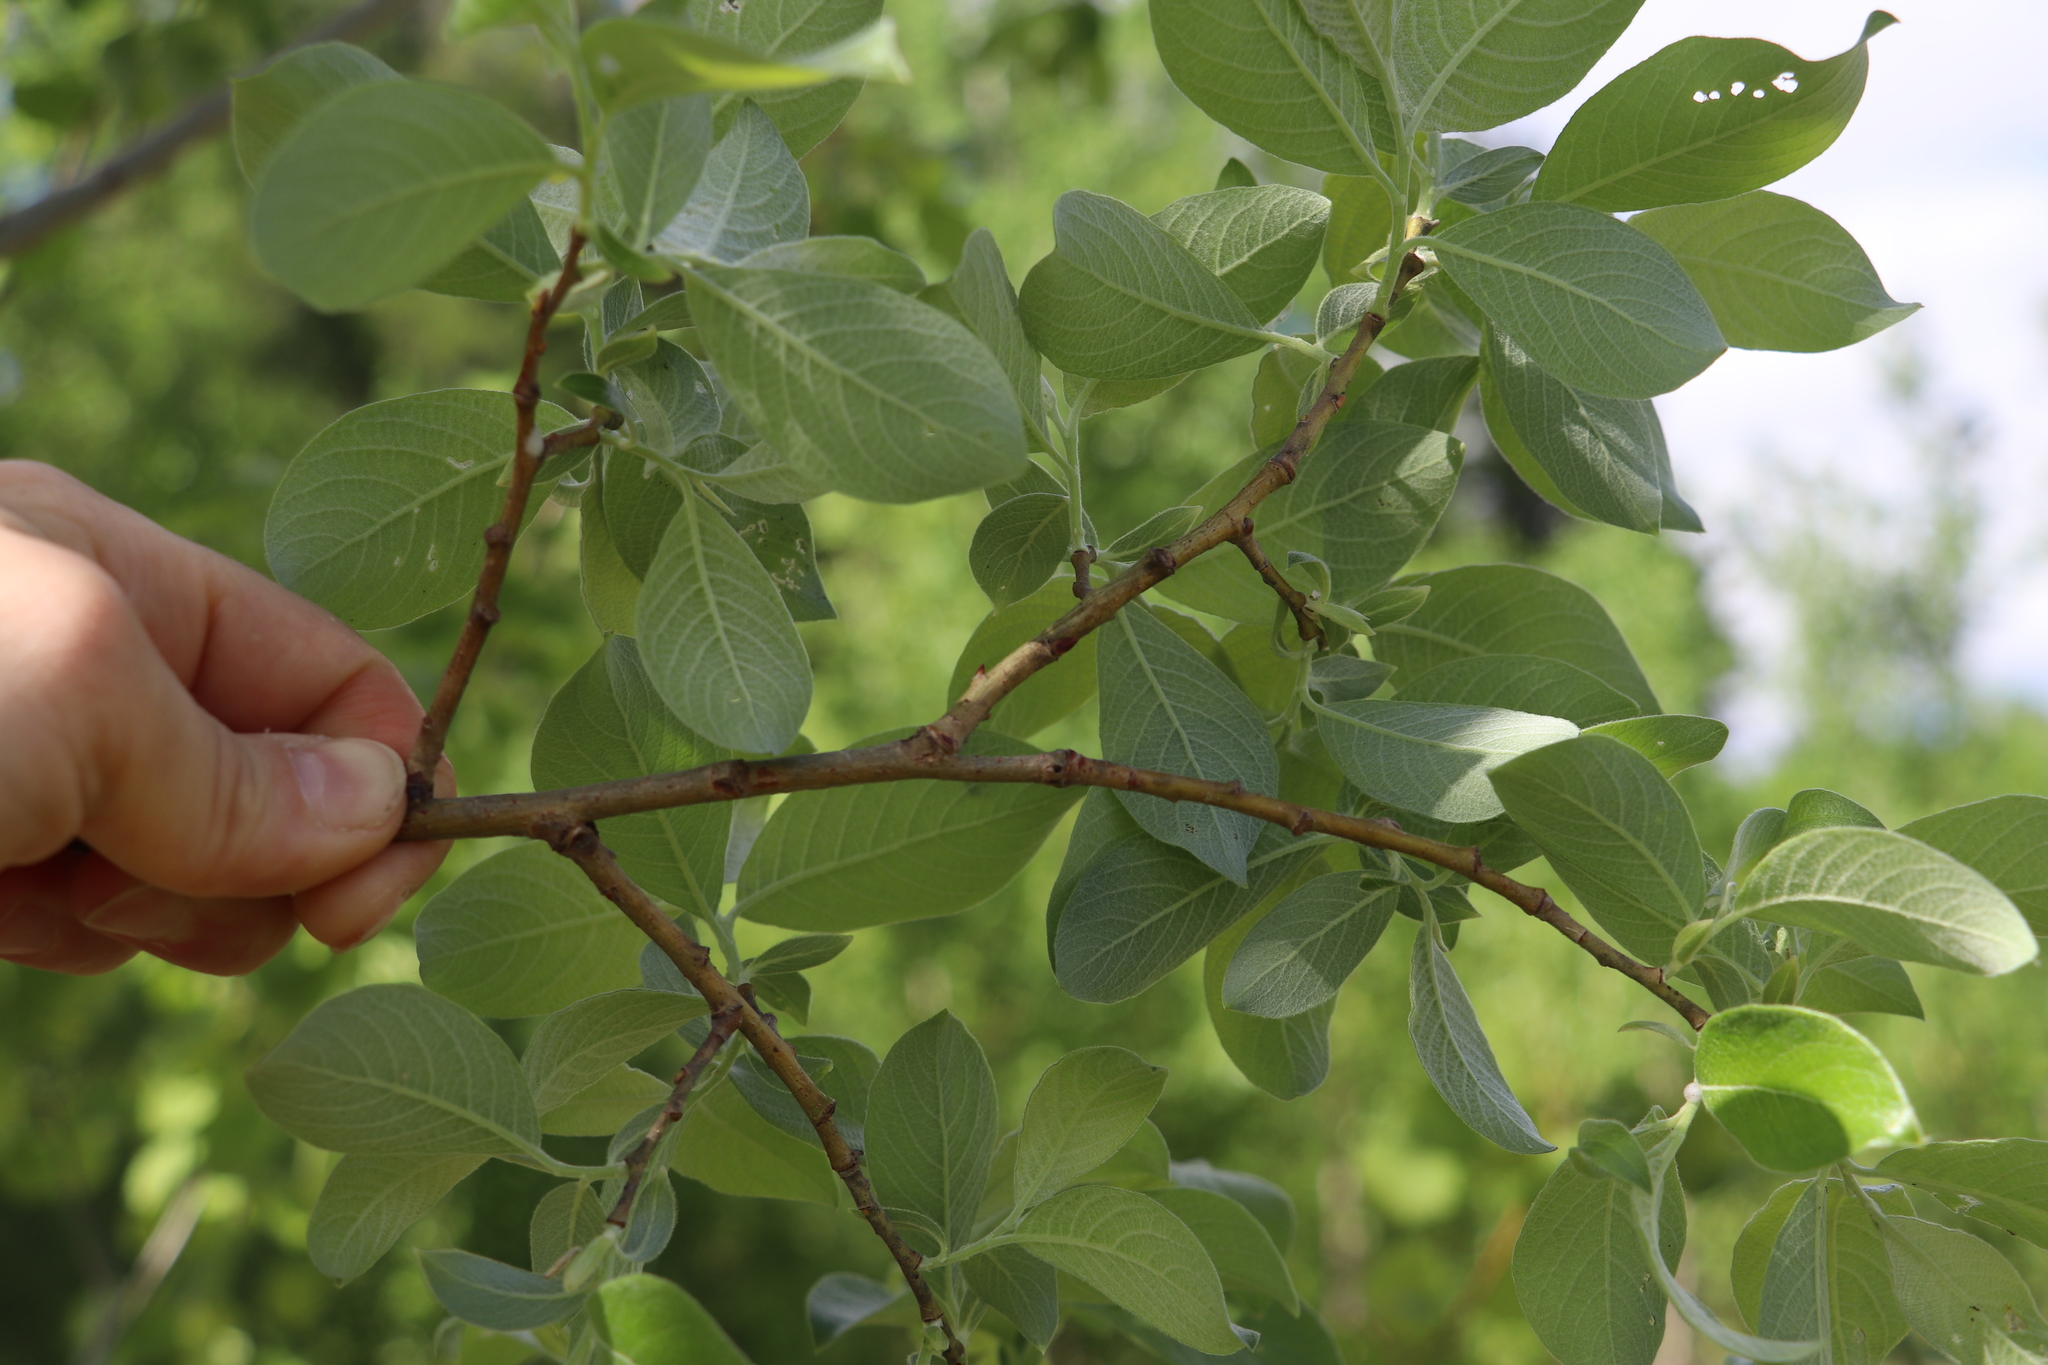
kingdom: Plantae
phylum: Tracheophyta
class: Magnoliopsida
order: Malpighiales
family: Salicaceae
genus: Salix
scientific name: Salix caprea
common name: Goat willow
